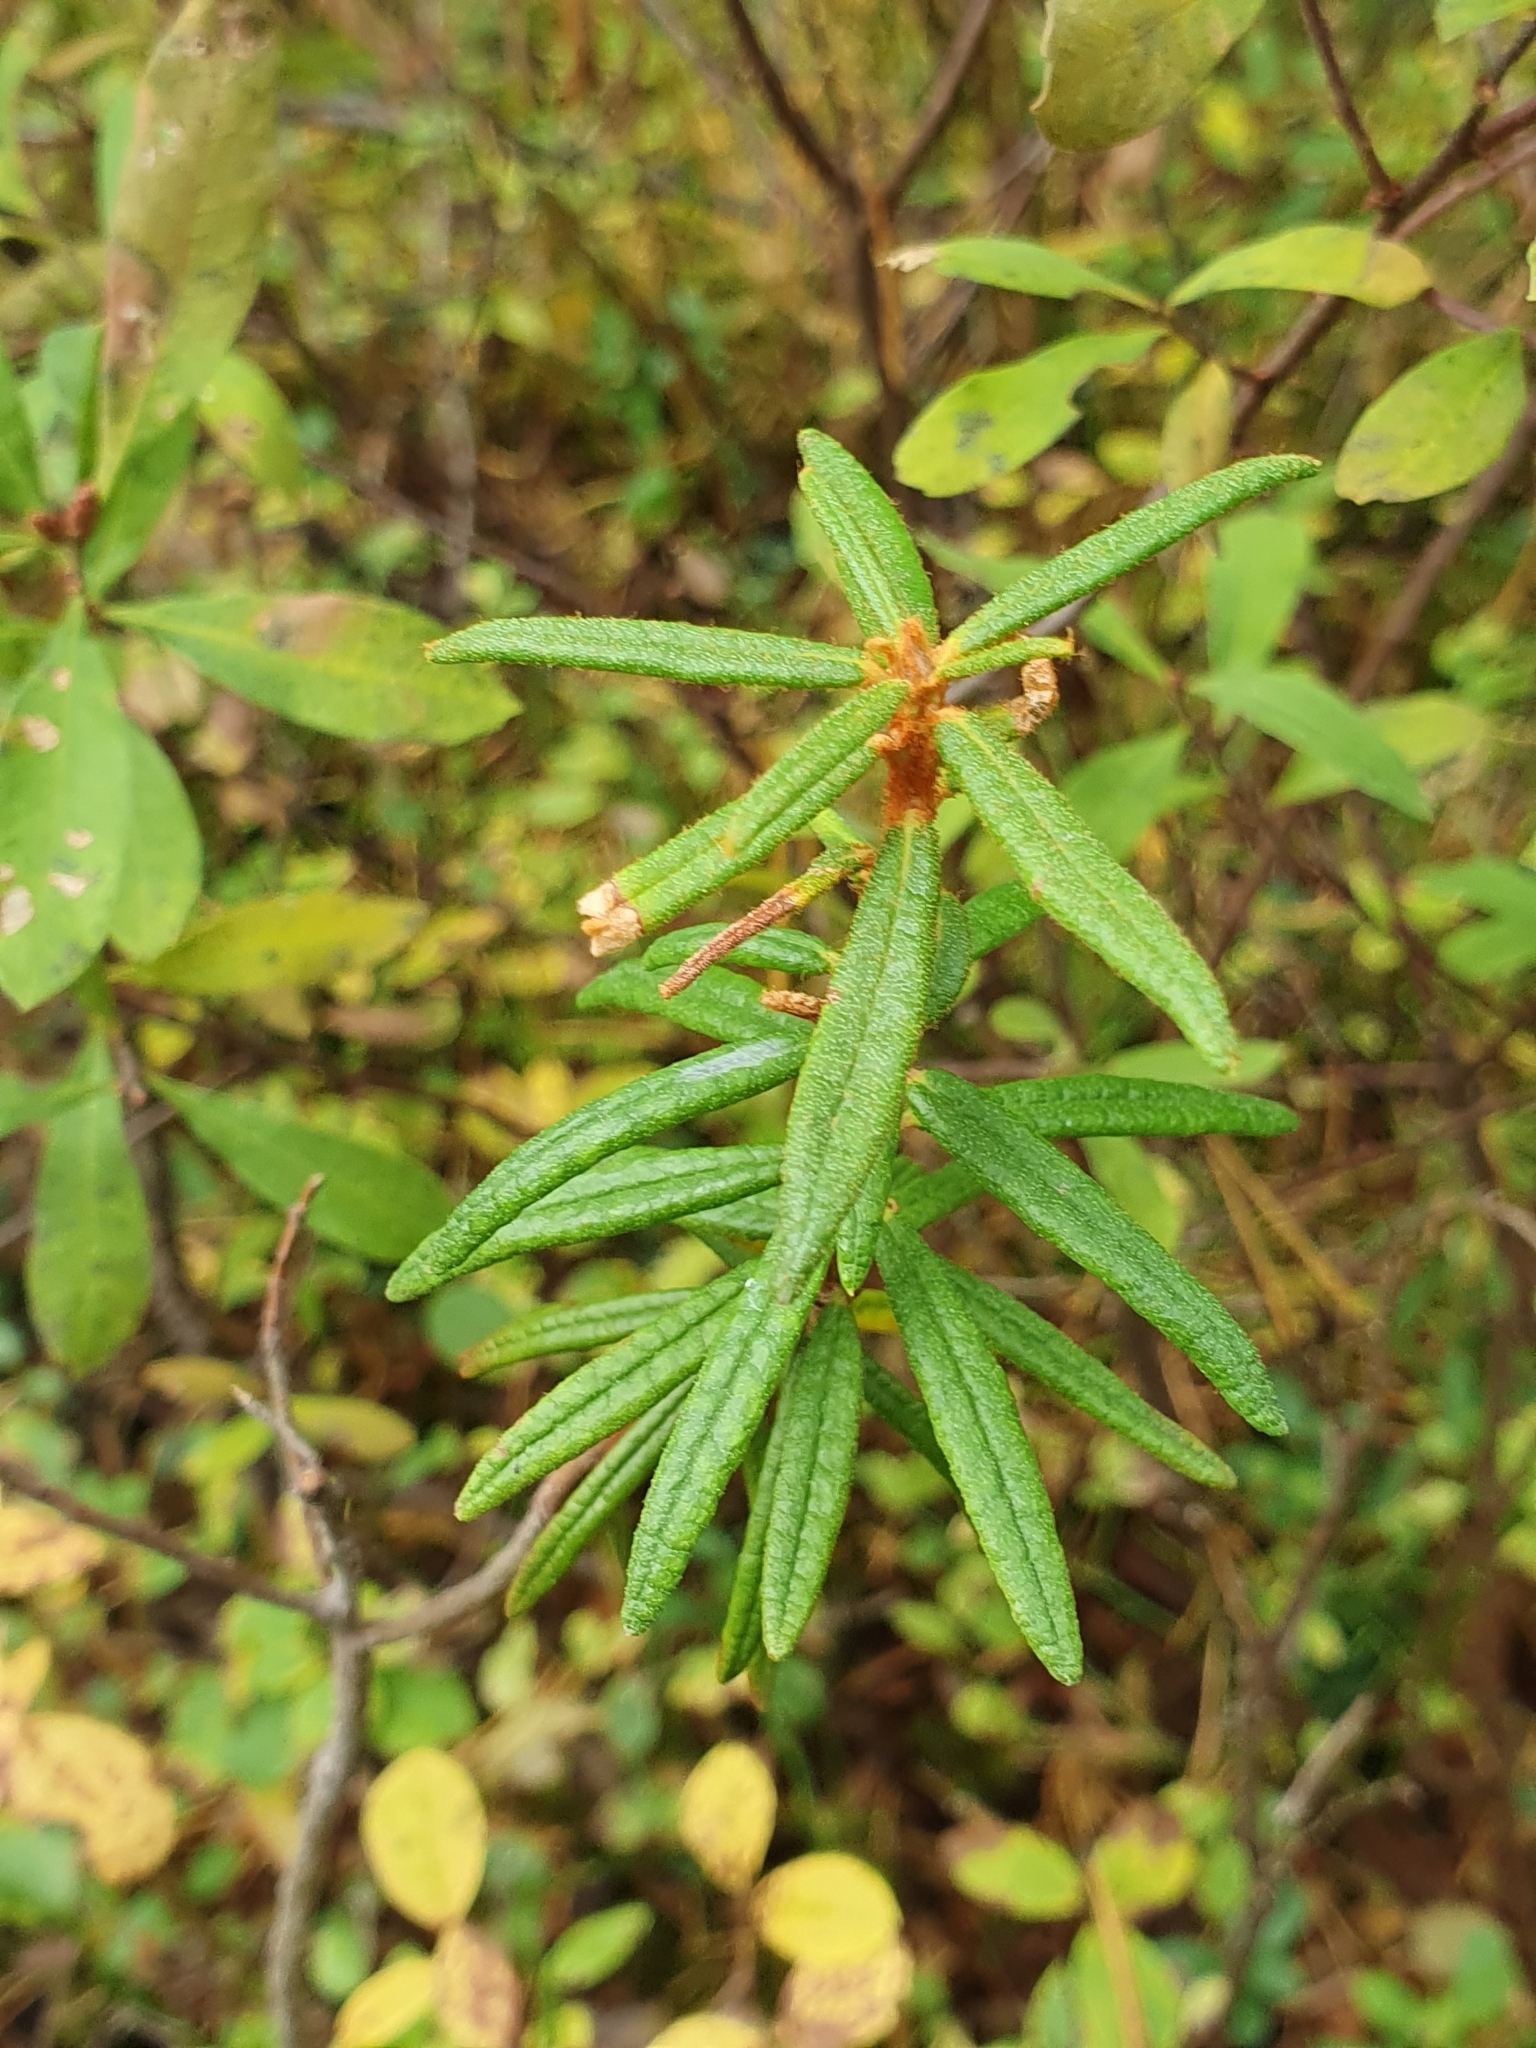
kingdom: Plantae
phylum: Tracheophyta
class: Magnoliopsida
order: Ericales
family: Ericaceae
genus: Rhododendron
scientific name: Rhododendron tomentosum
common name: Marsh labrador tea
